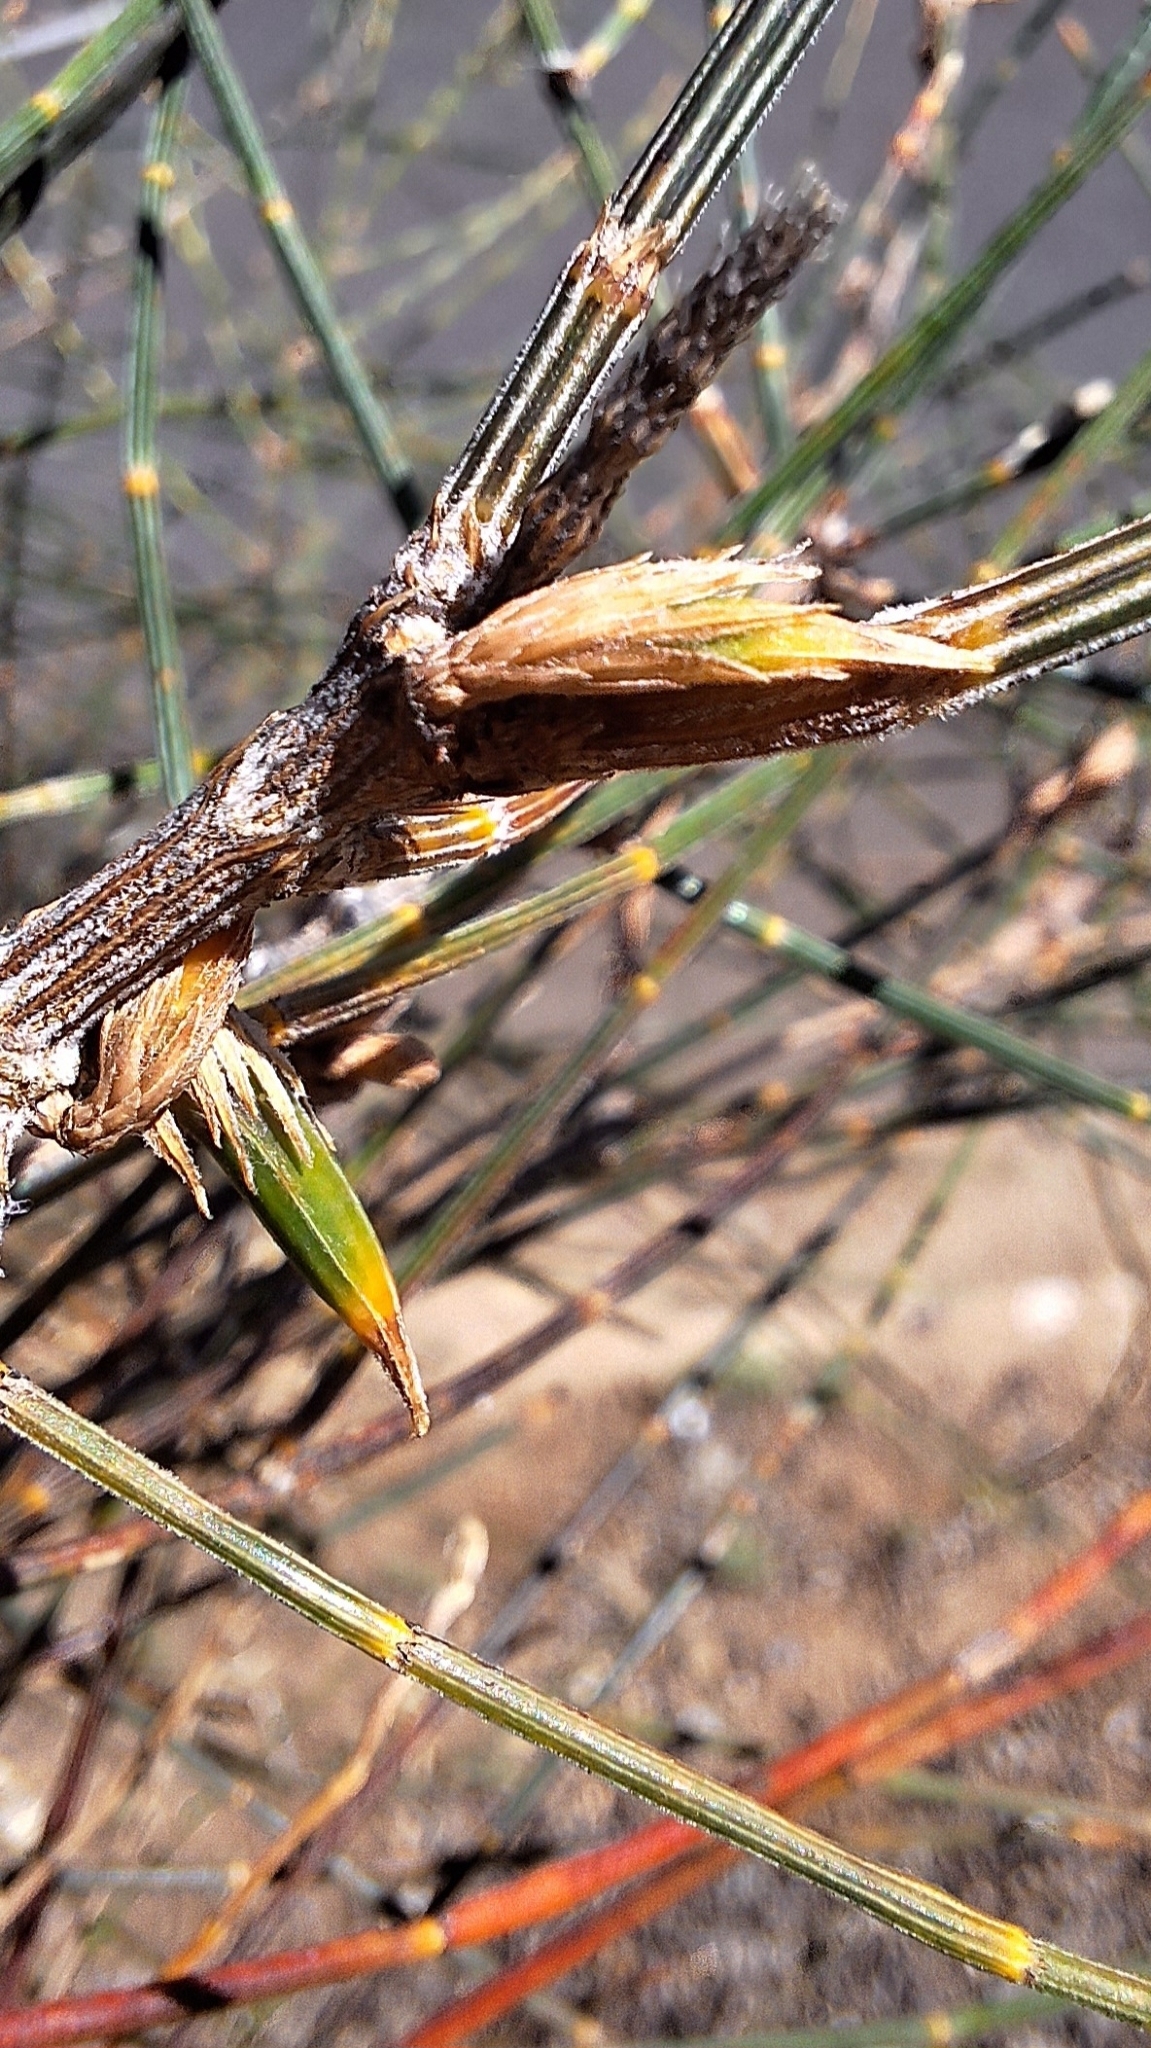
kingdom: Animalia
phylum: Arthropoda
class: Insecta
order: Hemiptera
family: Eriococcidae
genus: Cylindrococcus
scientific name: Cylindrococcus casuarinae
